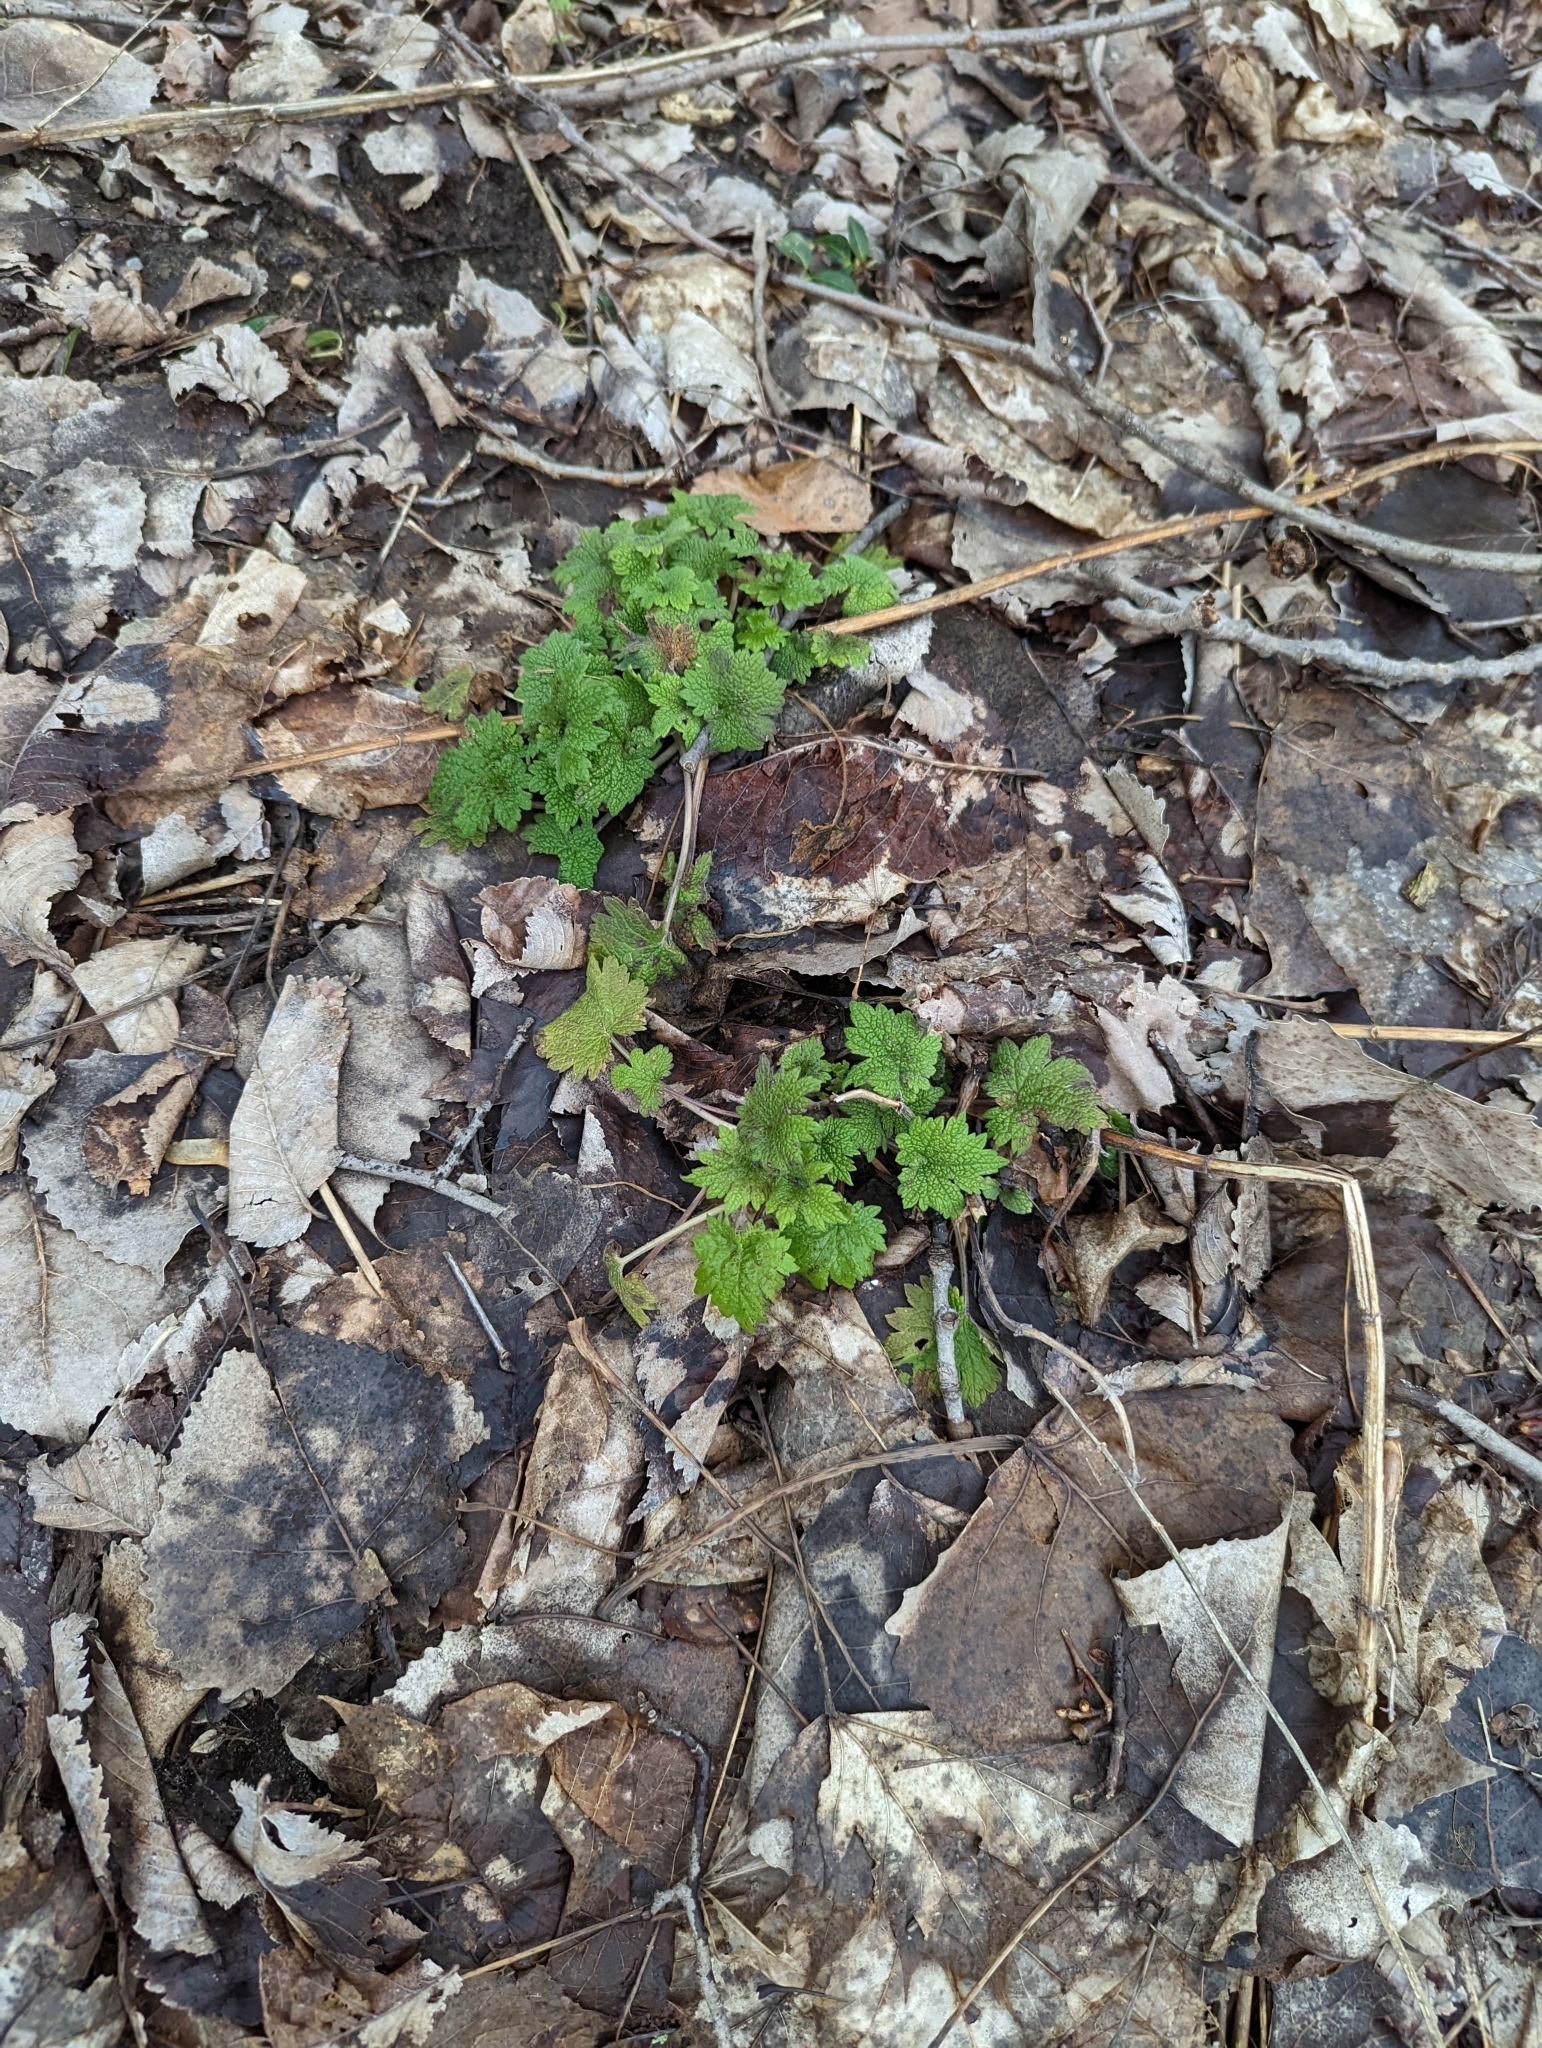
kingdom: Plantae
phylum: Tracheophyta
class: Magnoliopsida
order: Lamiales
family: Lamiaceae
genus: Leonurus
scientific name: Leonurus cardiaca
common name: Motherwort
